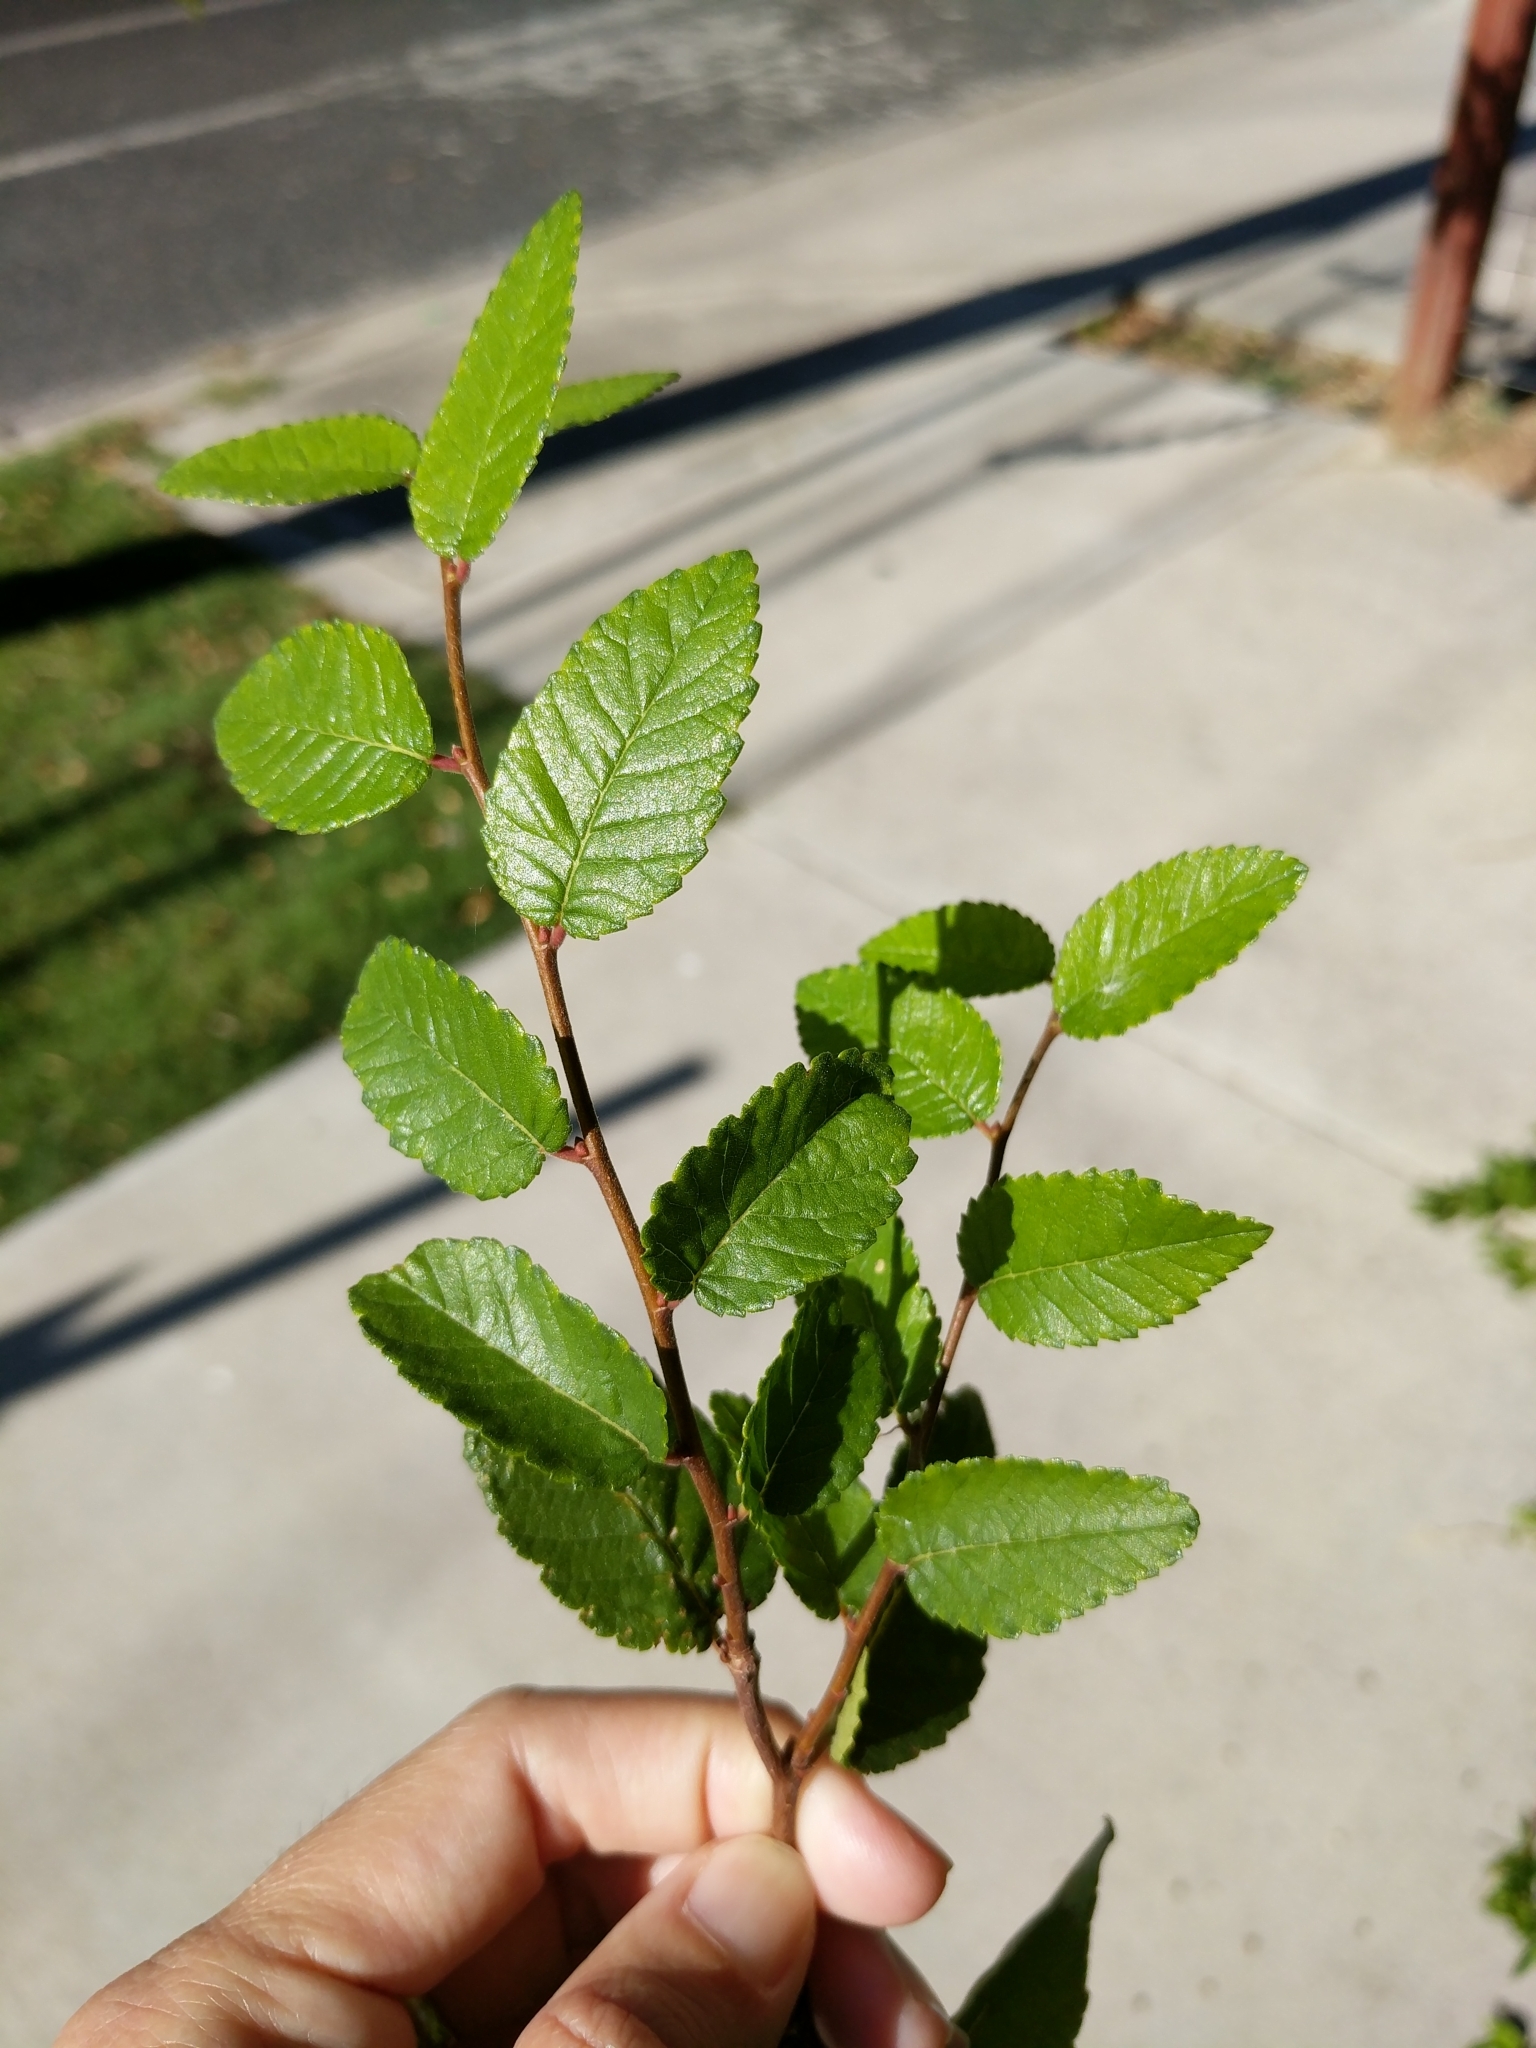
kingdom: Plantae
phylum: Tracheophyta
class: Magnoliopsida
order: Rosales
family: Ulmaceae
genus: Ulmus
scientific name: Ulmus crassifolia
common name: Basket elm
